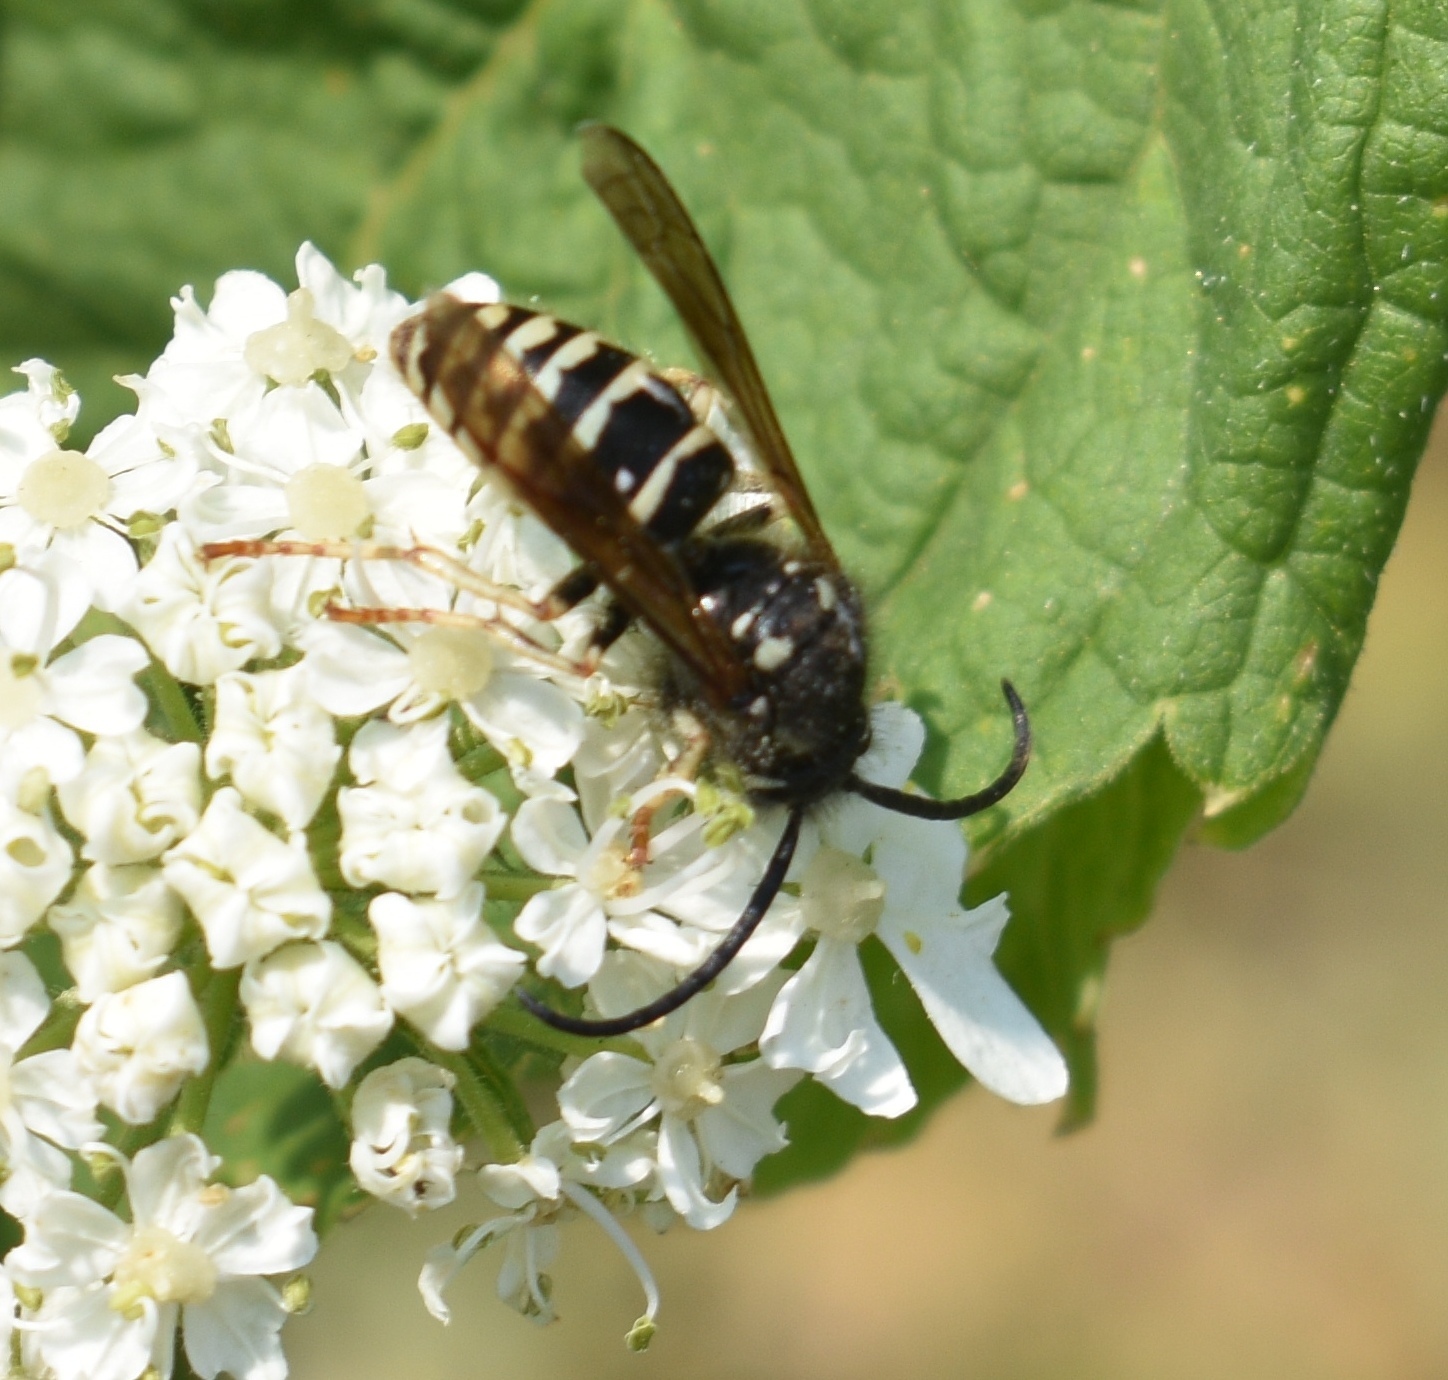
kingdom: Animalia
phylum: Arthropoda
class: Insecta
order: Hymenoptera
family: Vespidae
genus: Dolichovespula
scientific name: Dolichovespula adulterina
